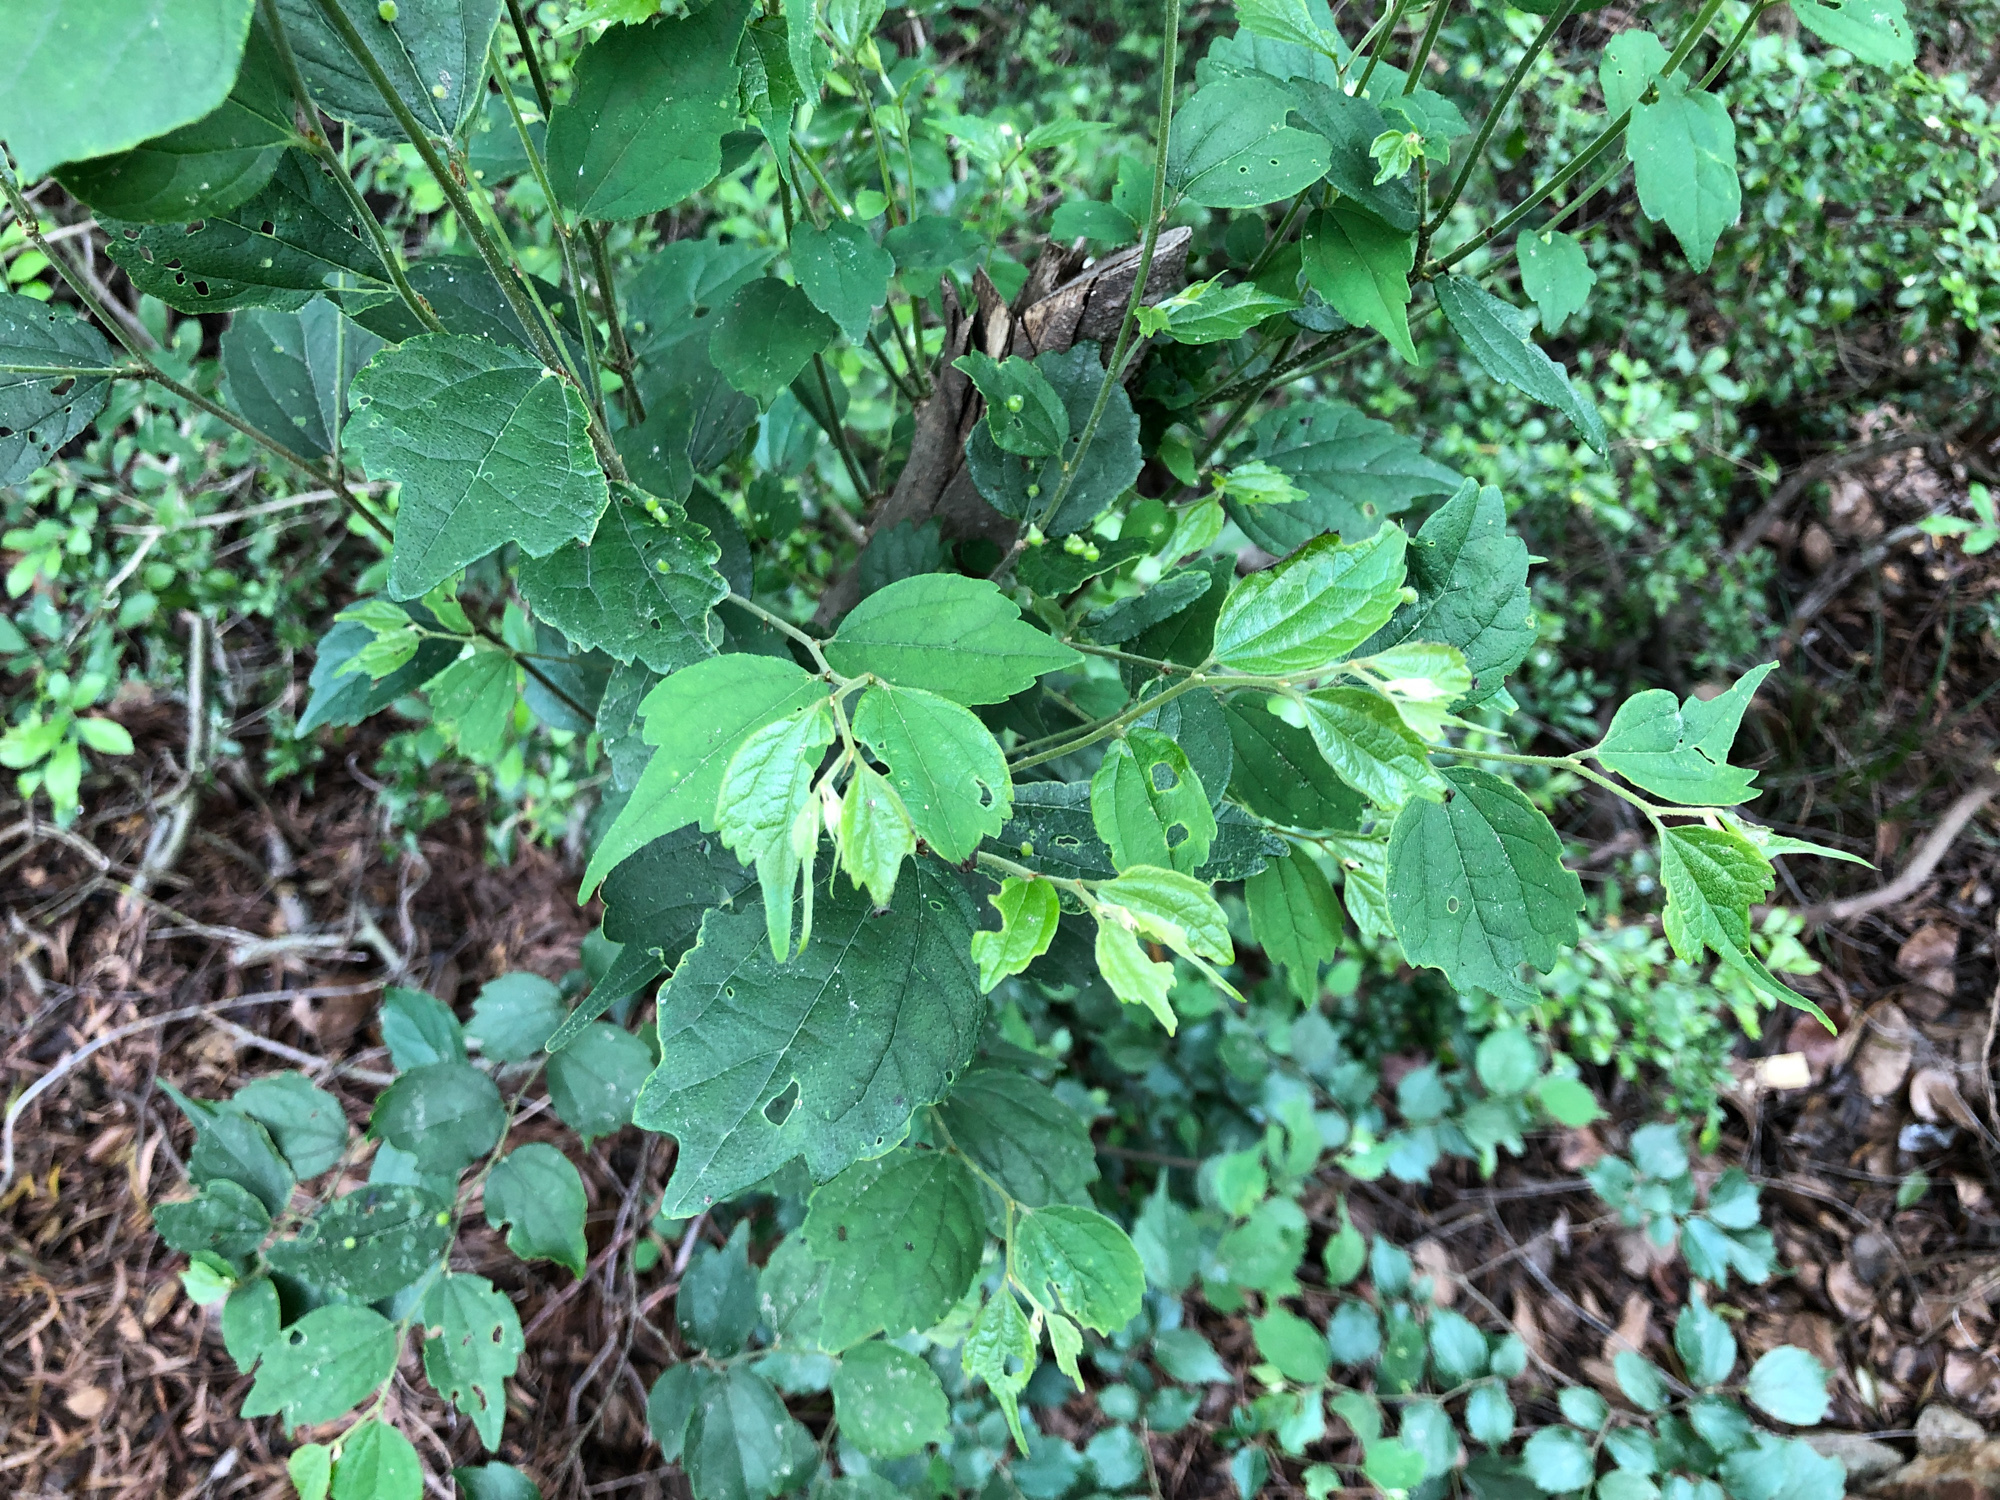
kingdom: Plantae
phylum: Tracheophyta
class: Magnoliopsida
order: Rosales
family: Cannabaceae
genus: Celtis
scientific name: Celtis biondii
